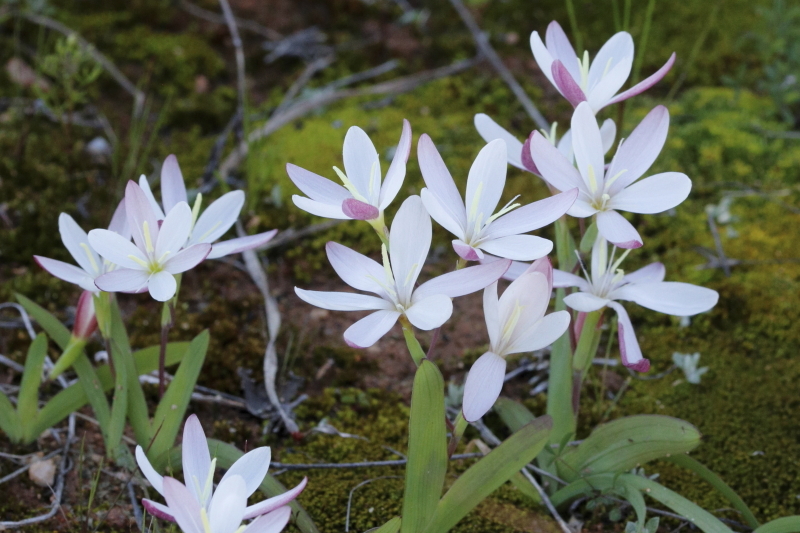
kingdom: Plantae
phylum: Tracheophyta
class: Liliopsida
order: Asparagales
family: Iridaceae
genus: Hesperantha
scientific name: Hesperantha falcata
